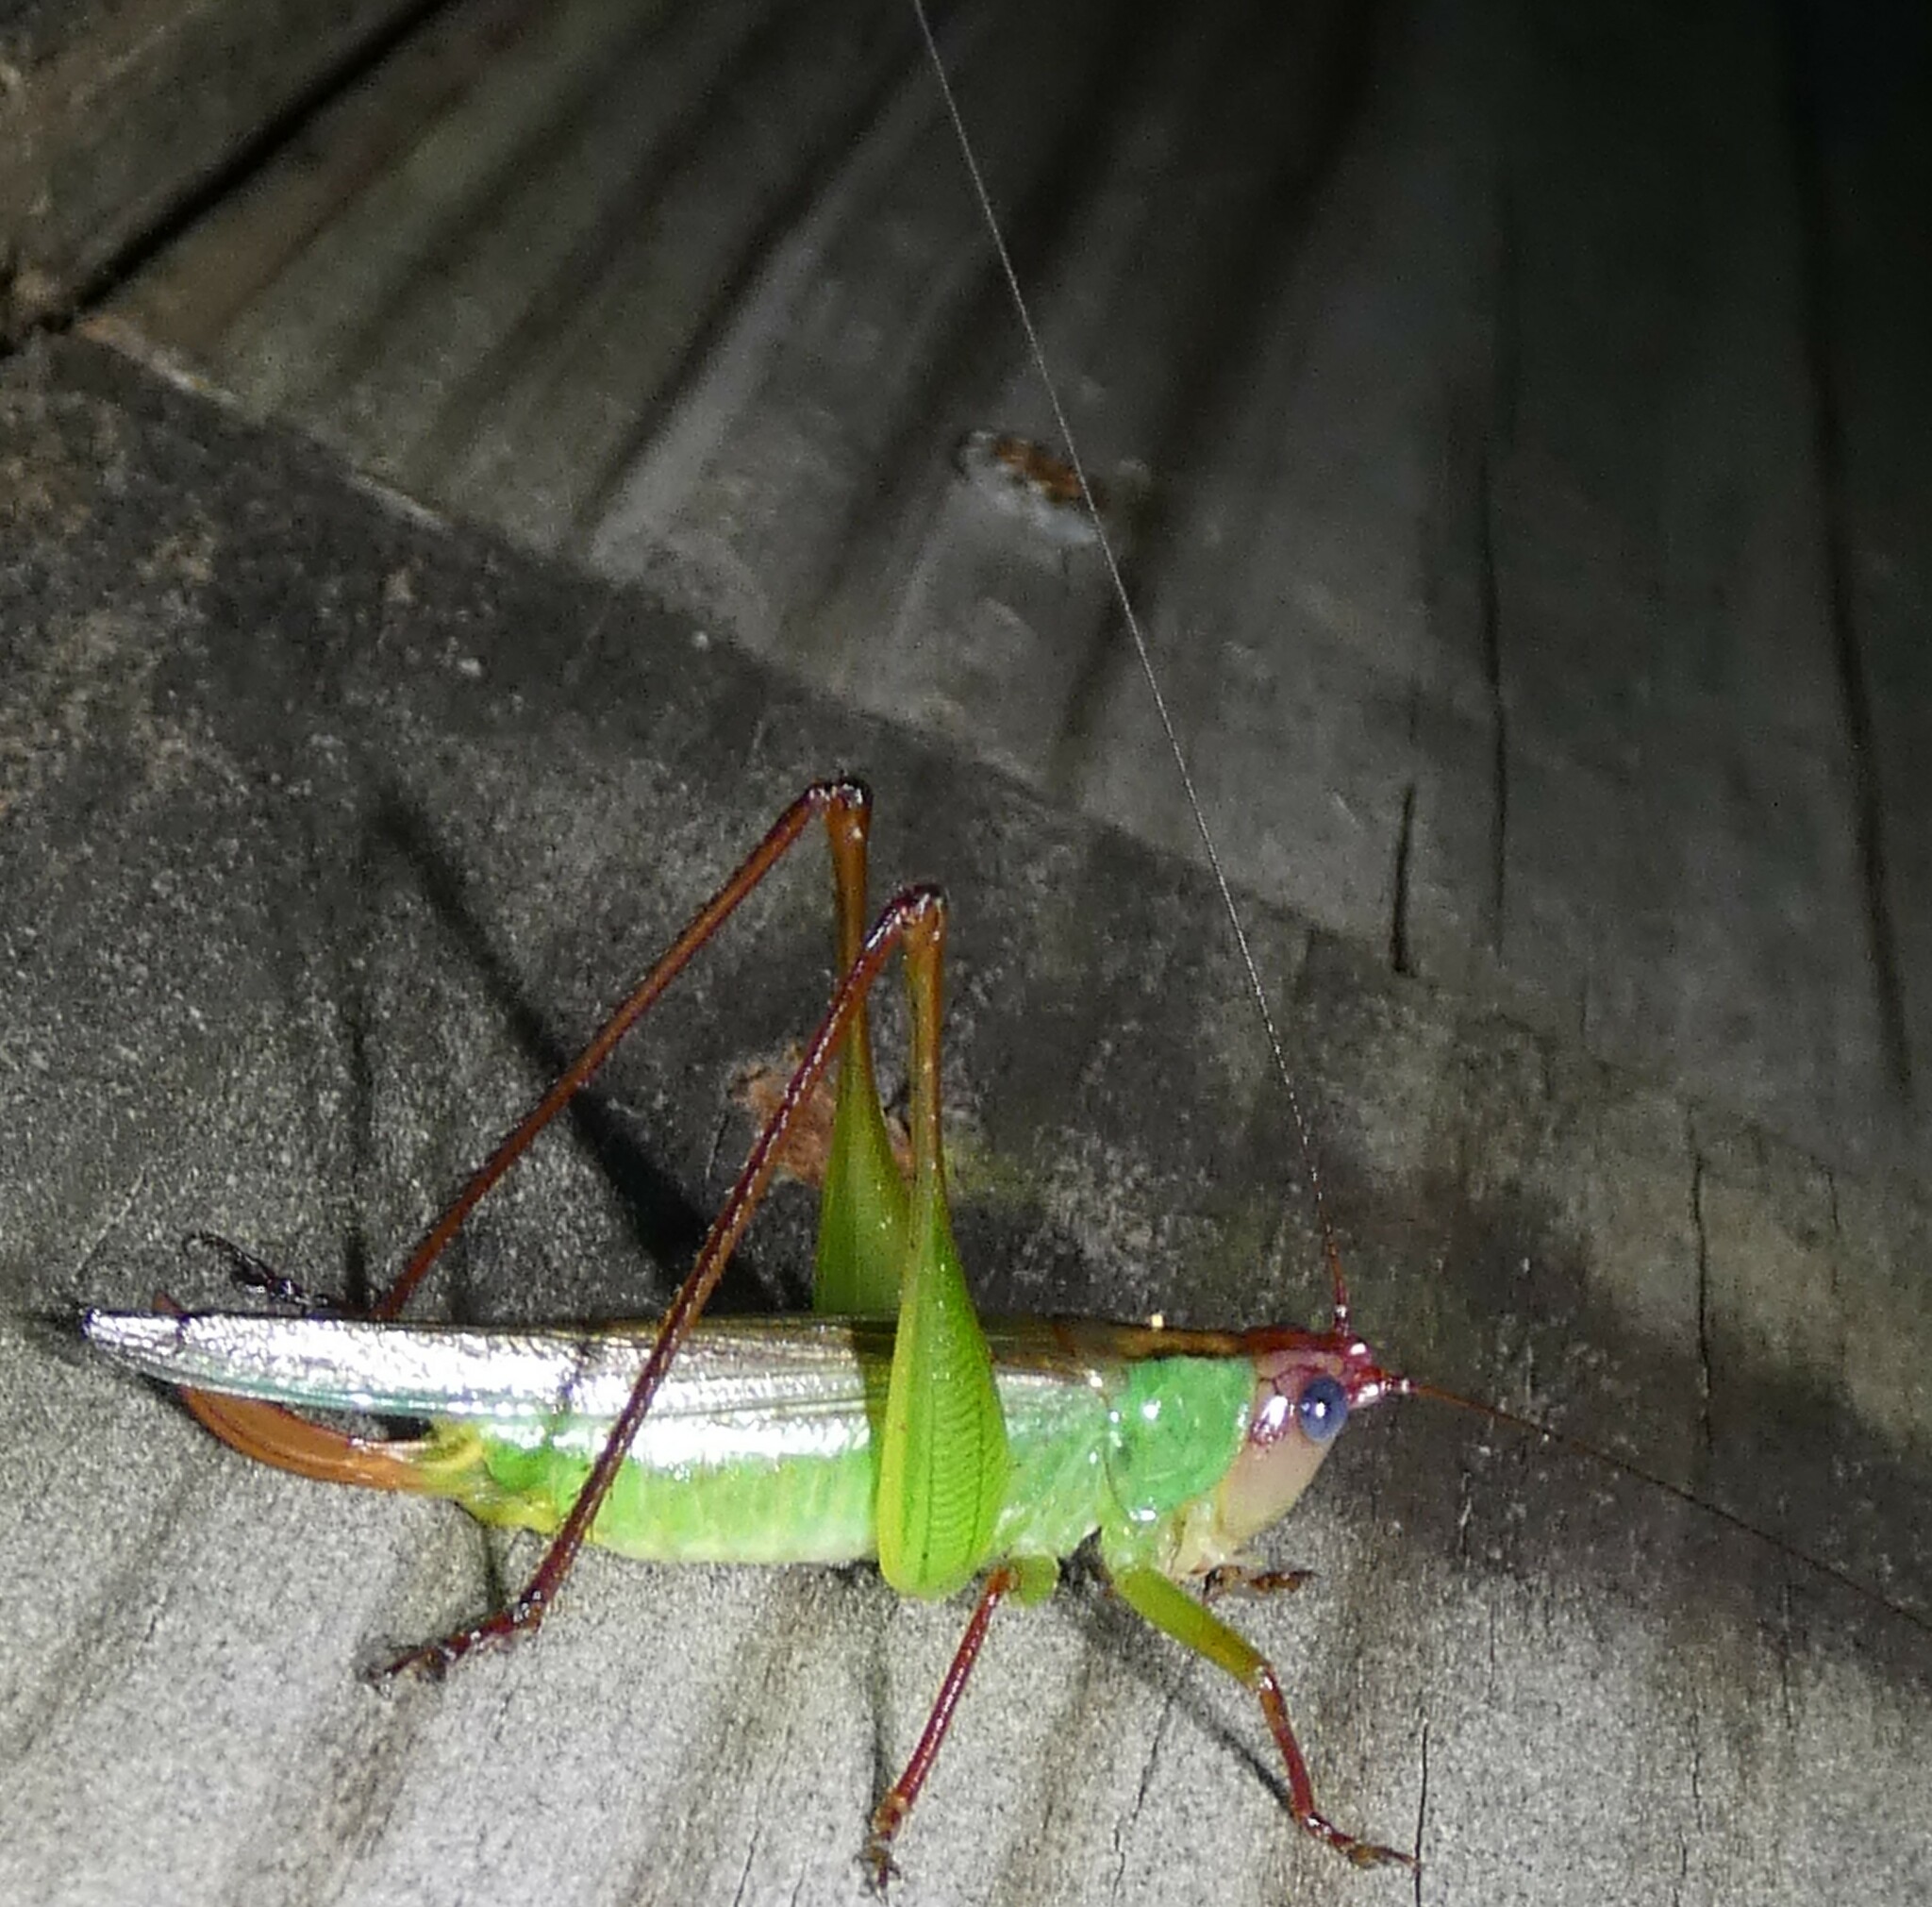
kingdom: Animalia
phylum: Arthropoda
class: Insecta
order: Orthoptera
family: Tettigoniidae
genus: Orchelimum
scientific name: Orchelimum pulchellum
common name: Handsome meadow katydid
